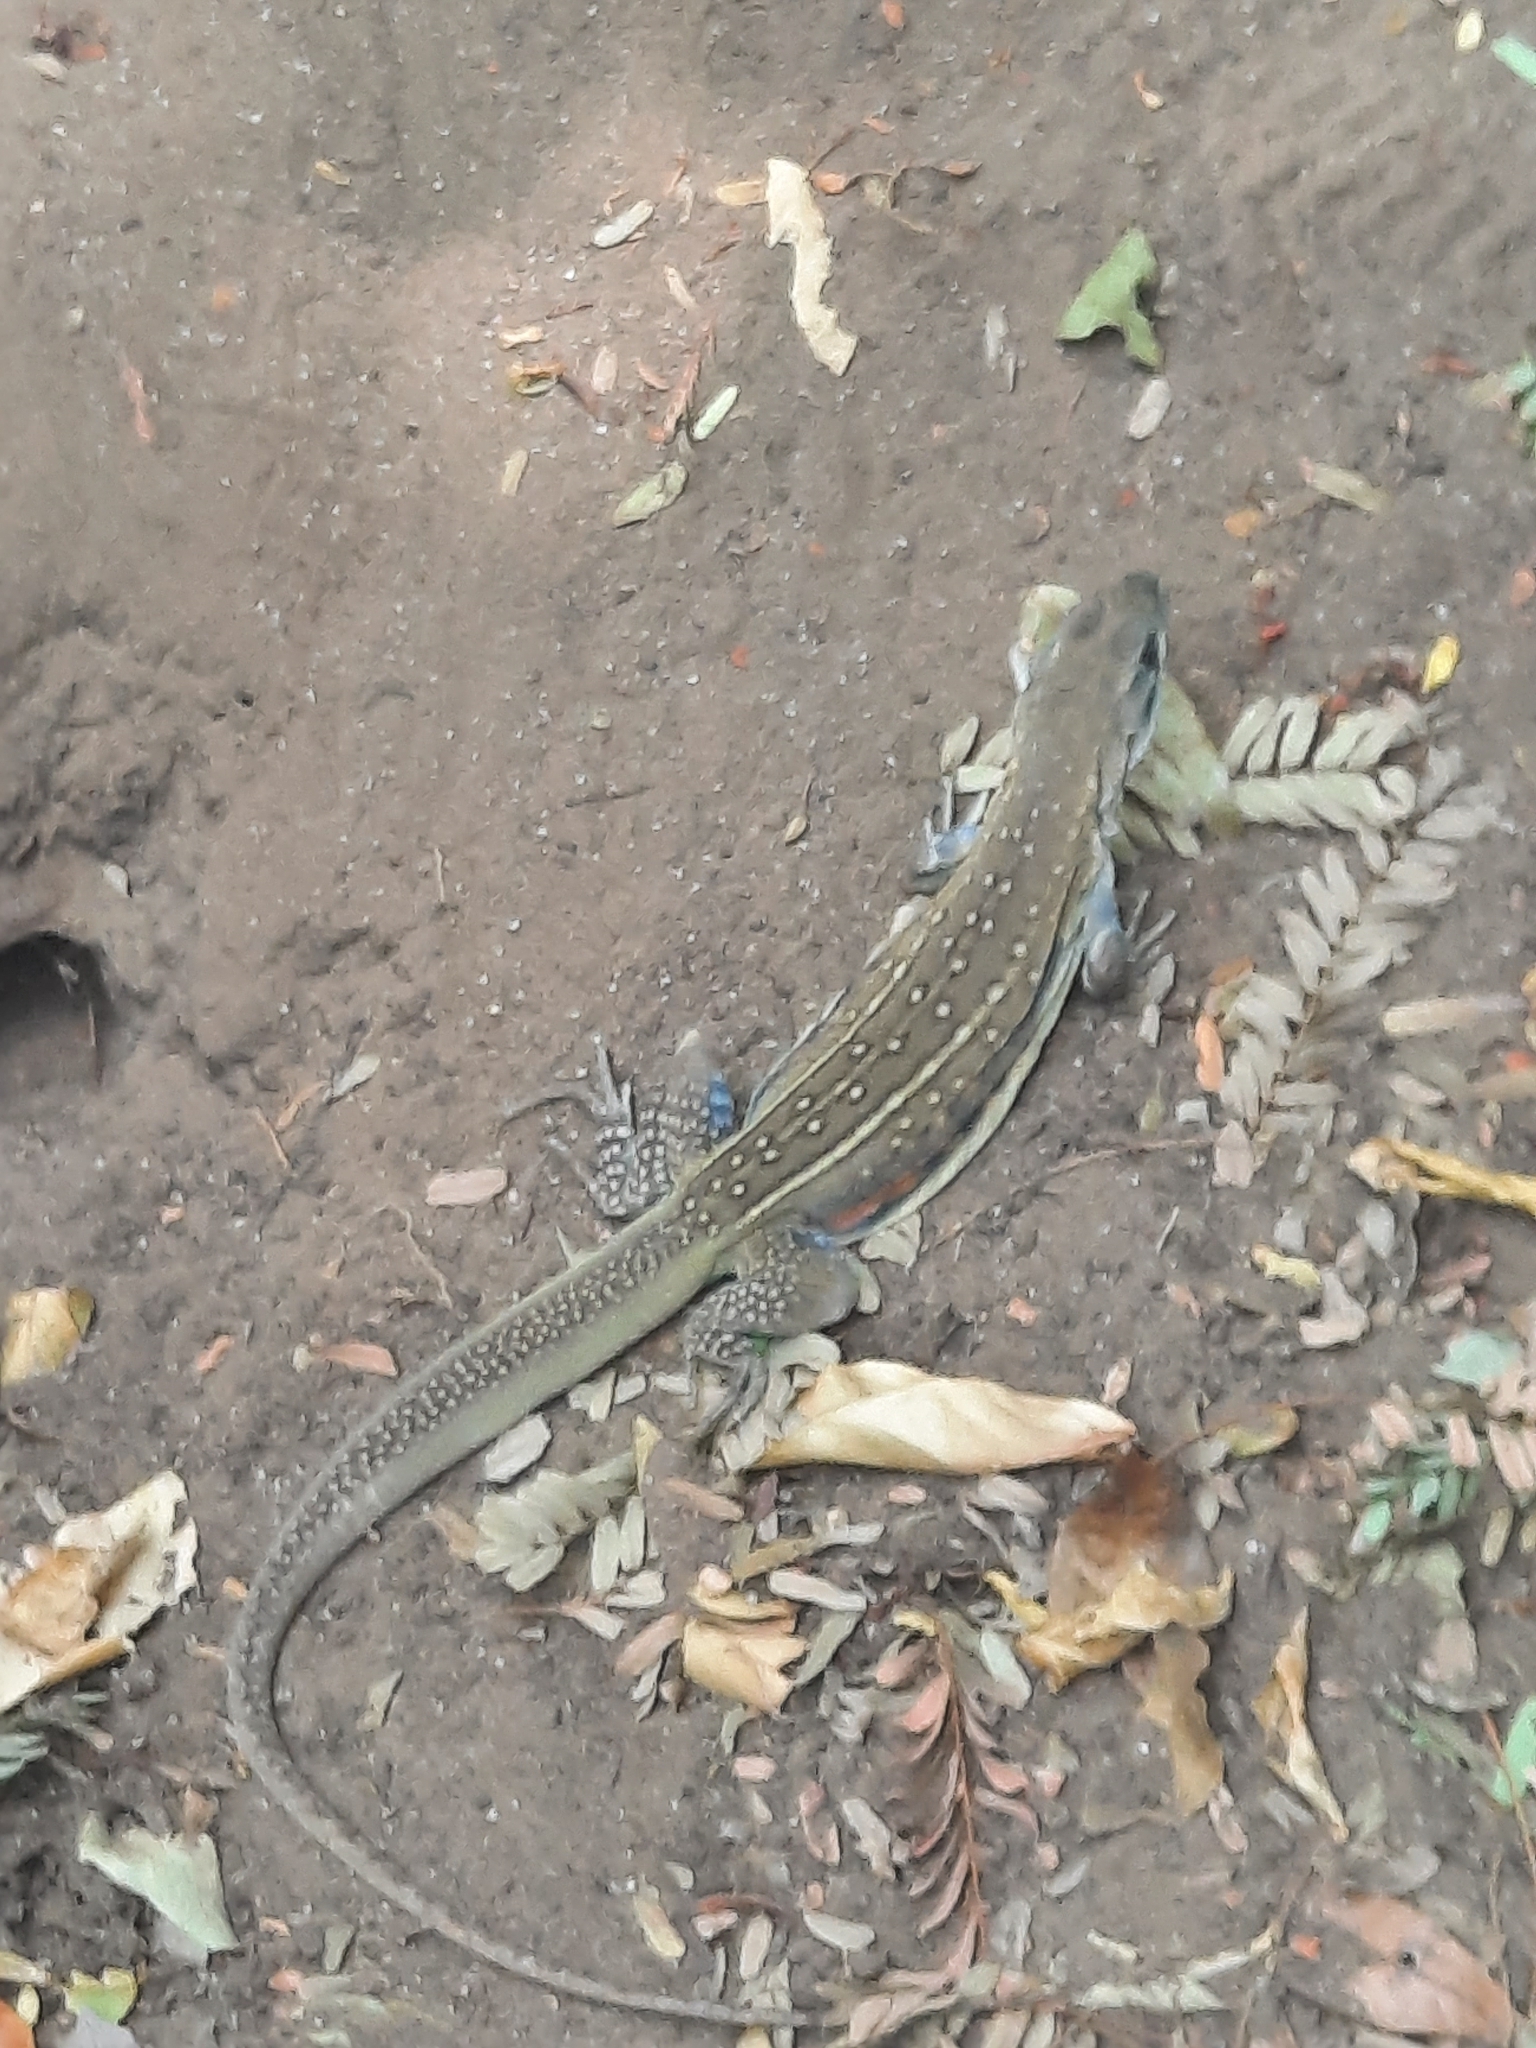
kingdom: Animalia
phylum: Chordata
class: Squamata
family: Agamidae
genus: Leiolepis
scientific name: Leiolepis belliana
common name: Common butterfly lizard
